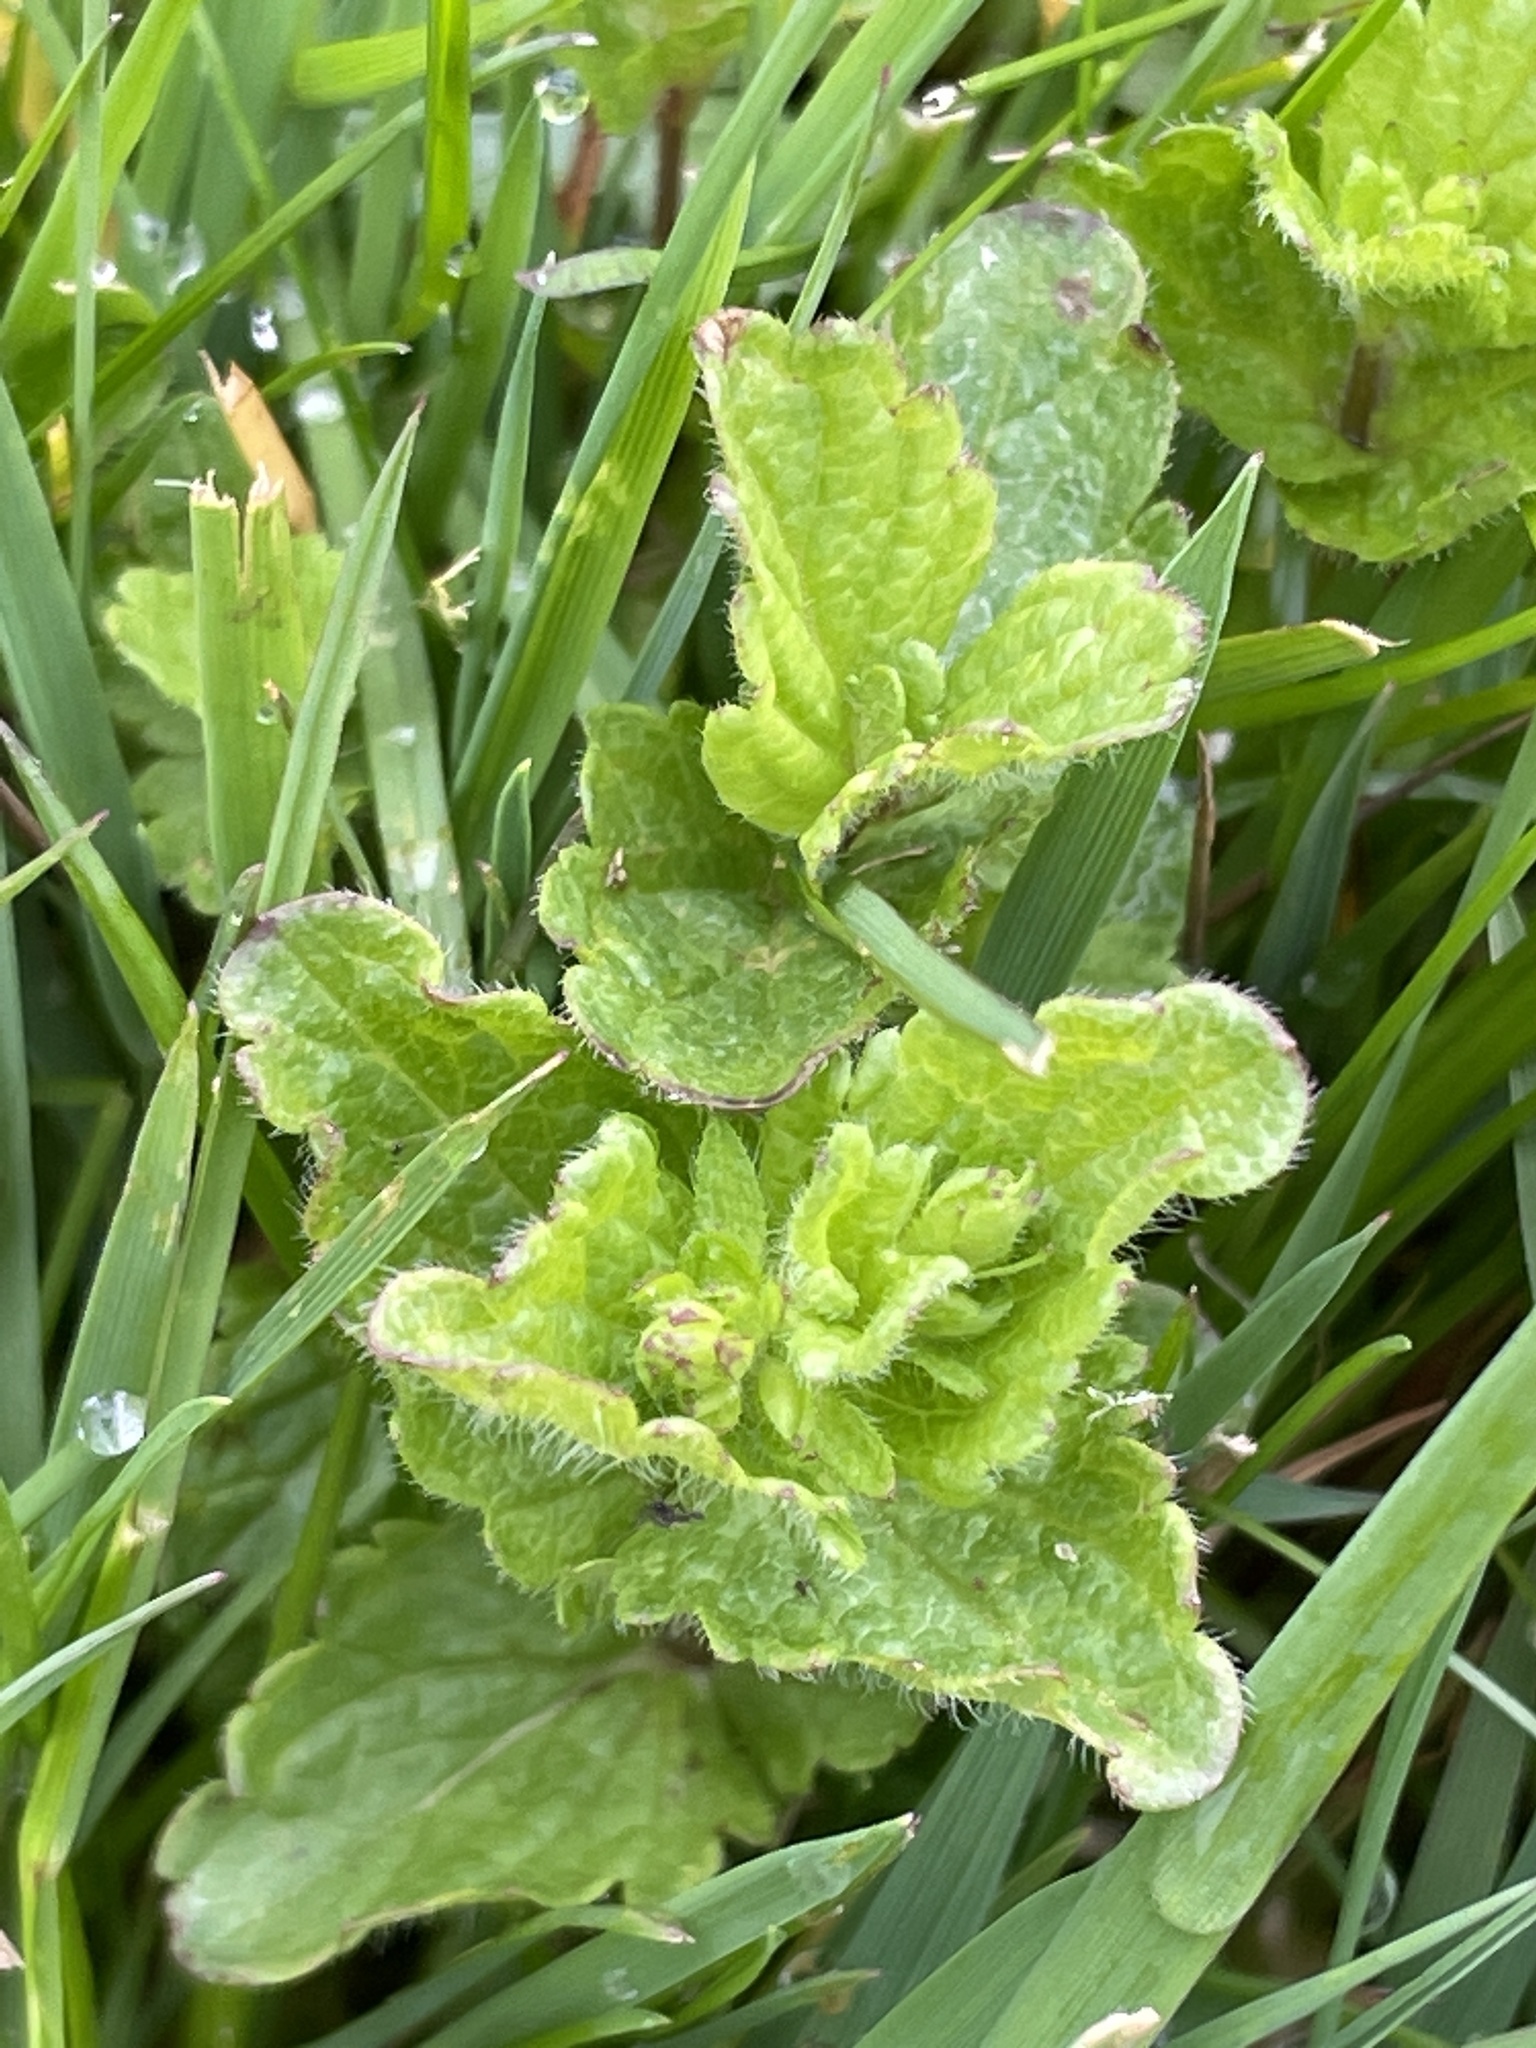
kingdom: Plantae
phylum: Tracheophyta
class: Magnoliopsida
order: Lamiales
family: Plantaginaceae
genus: Veronica
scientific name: Veronica chamaedrys
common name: Germander speedwell
